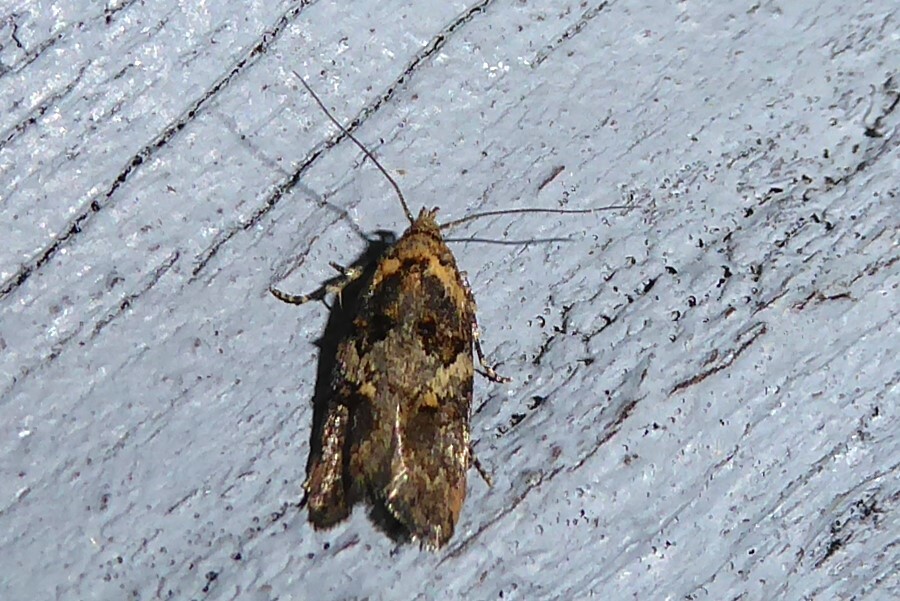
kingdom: Animalia
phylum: Arthropoda
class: Insecta
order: Lepidoptera
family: Oecophoridae
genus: Trachypepla
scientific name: Trachypepla anastrella
